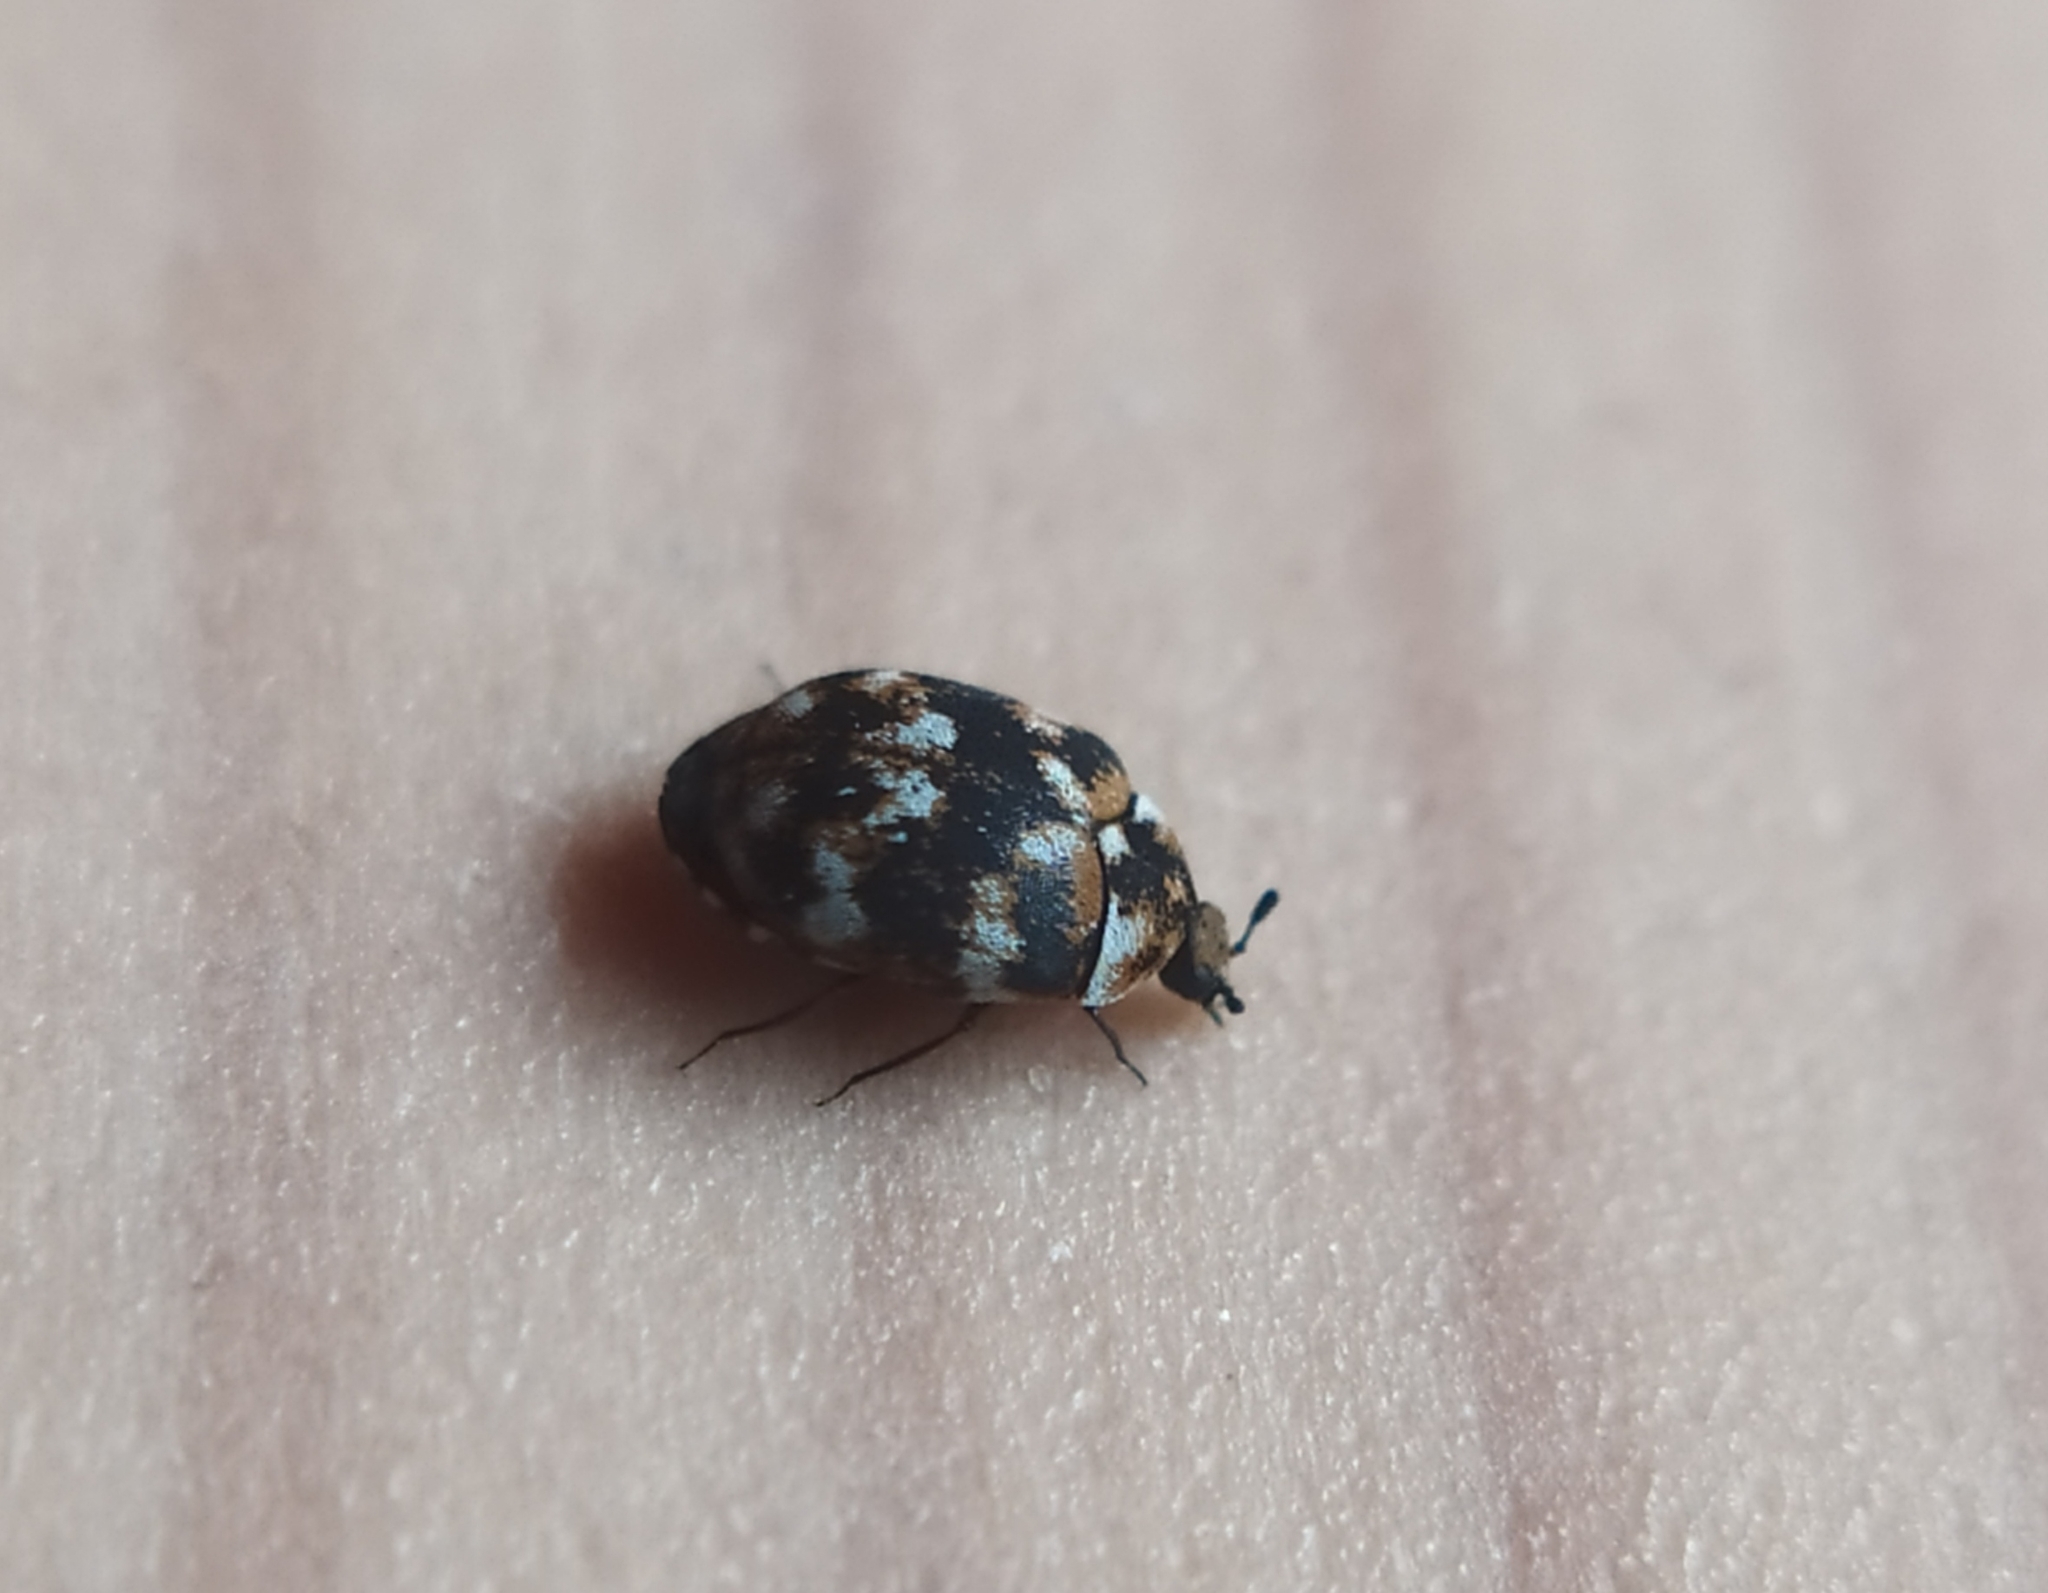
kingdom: Animalia
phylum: Arthropoda
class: Insecta
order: Coleoptera
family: Dermestidae
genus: Anthrenus
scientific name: Anthrenus verbasci
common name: Varied carpet beetle
